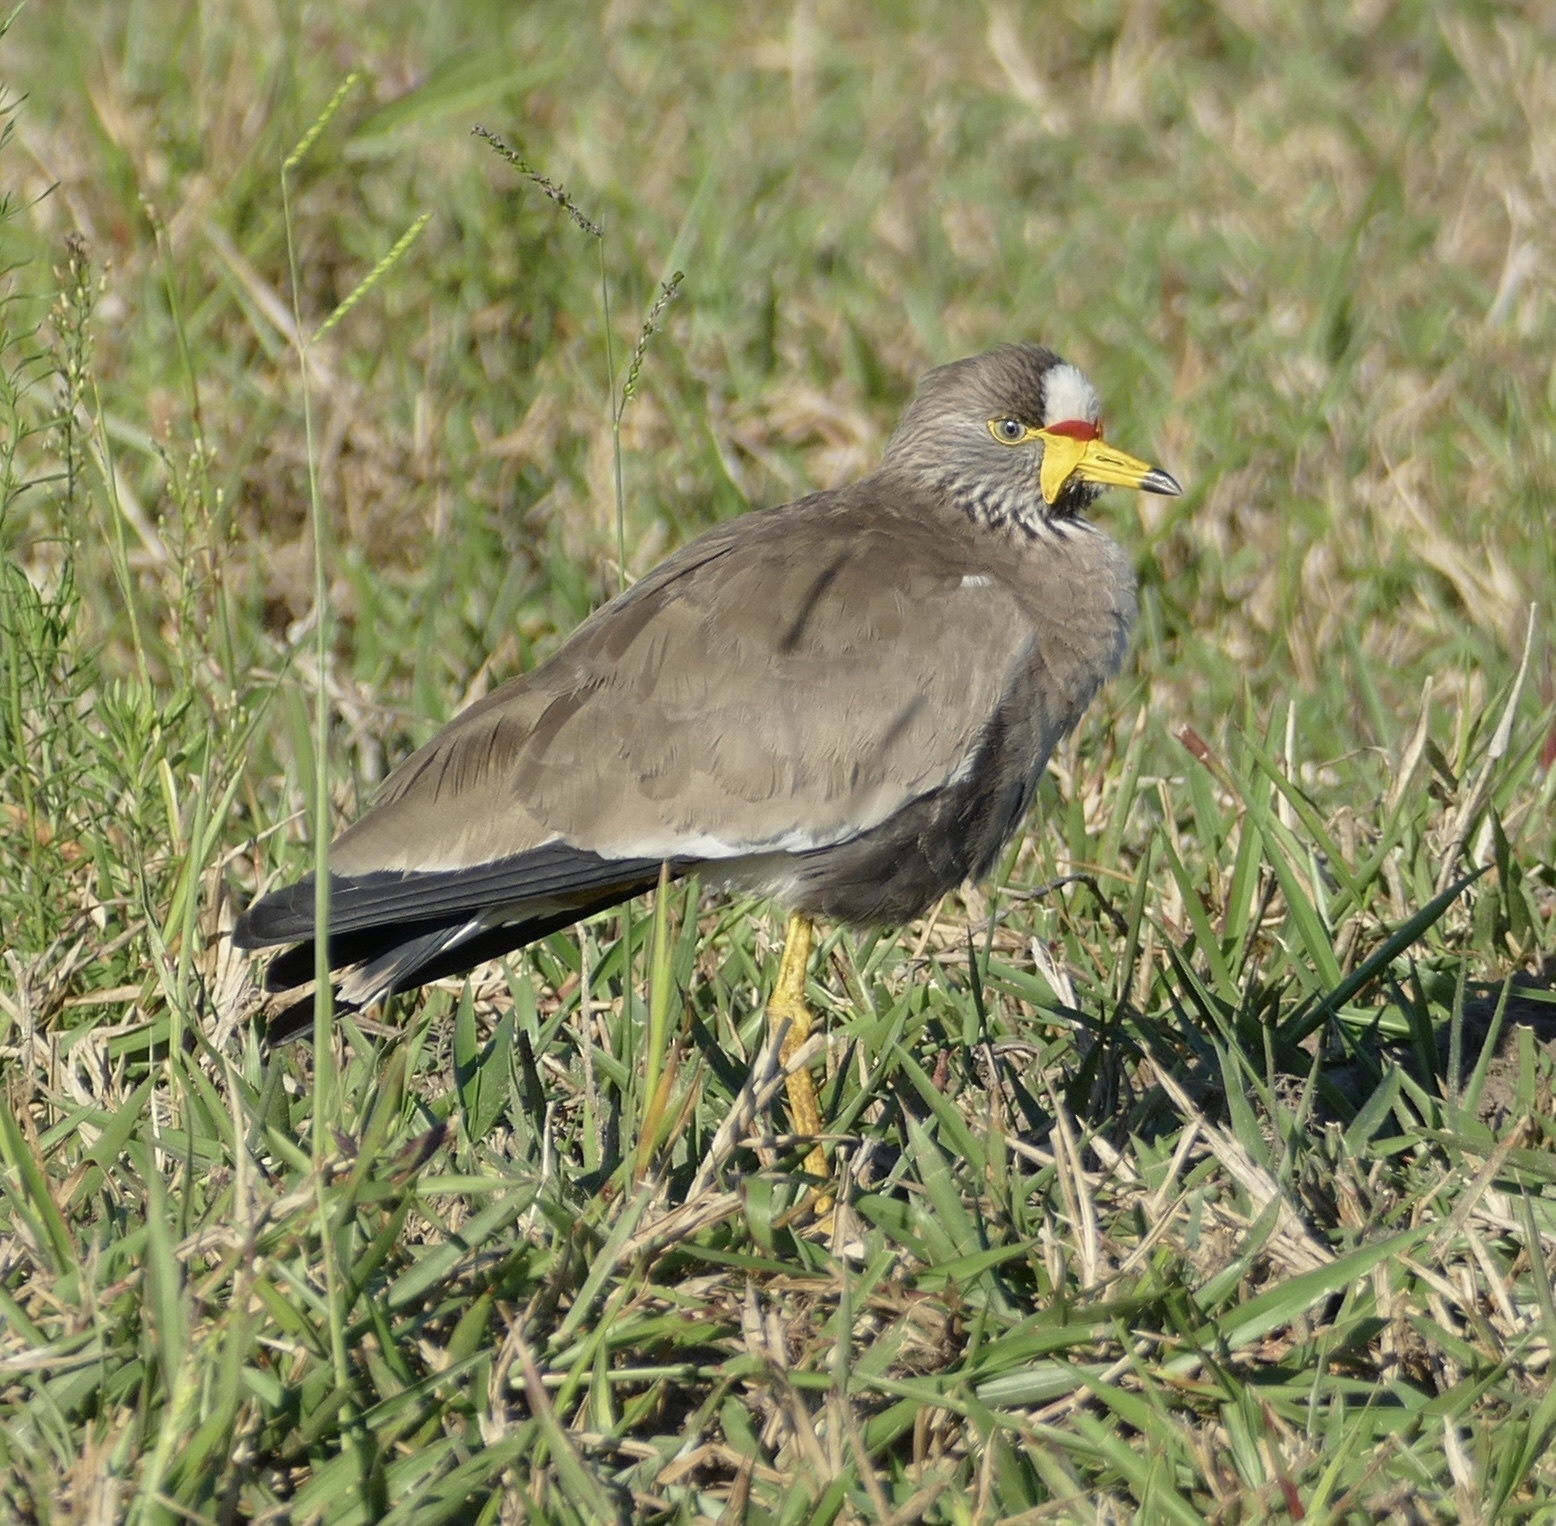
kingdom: Animalia
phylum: Chordata
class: Aves
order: Charadriiformes
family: Charadriidae
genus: Vanellus
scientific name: Vanellus senegallus
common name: African wattled lapwing
